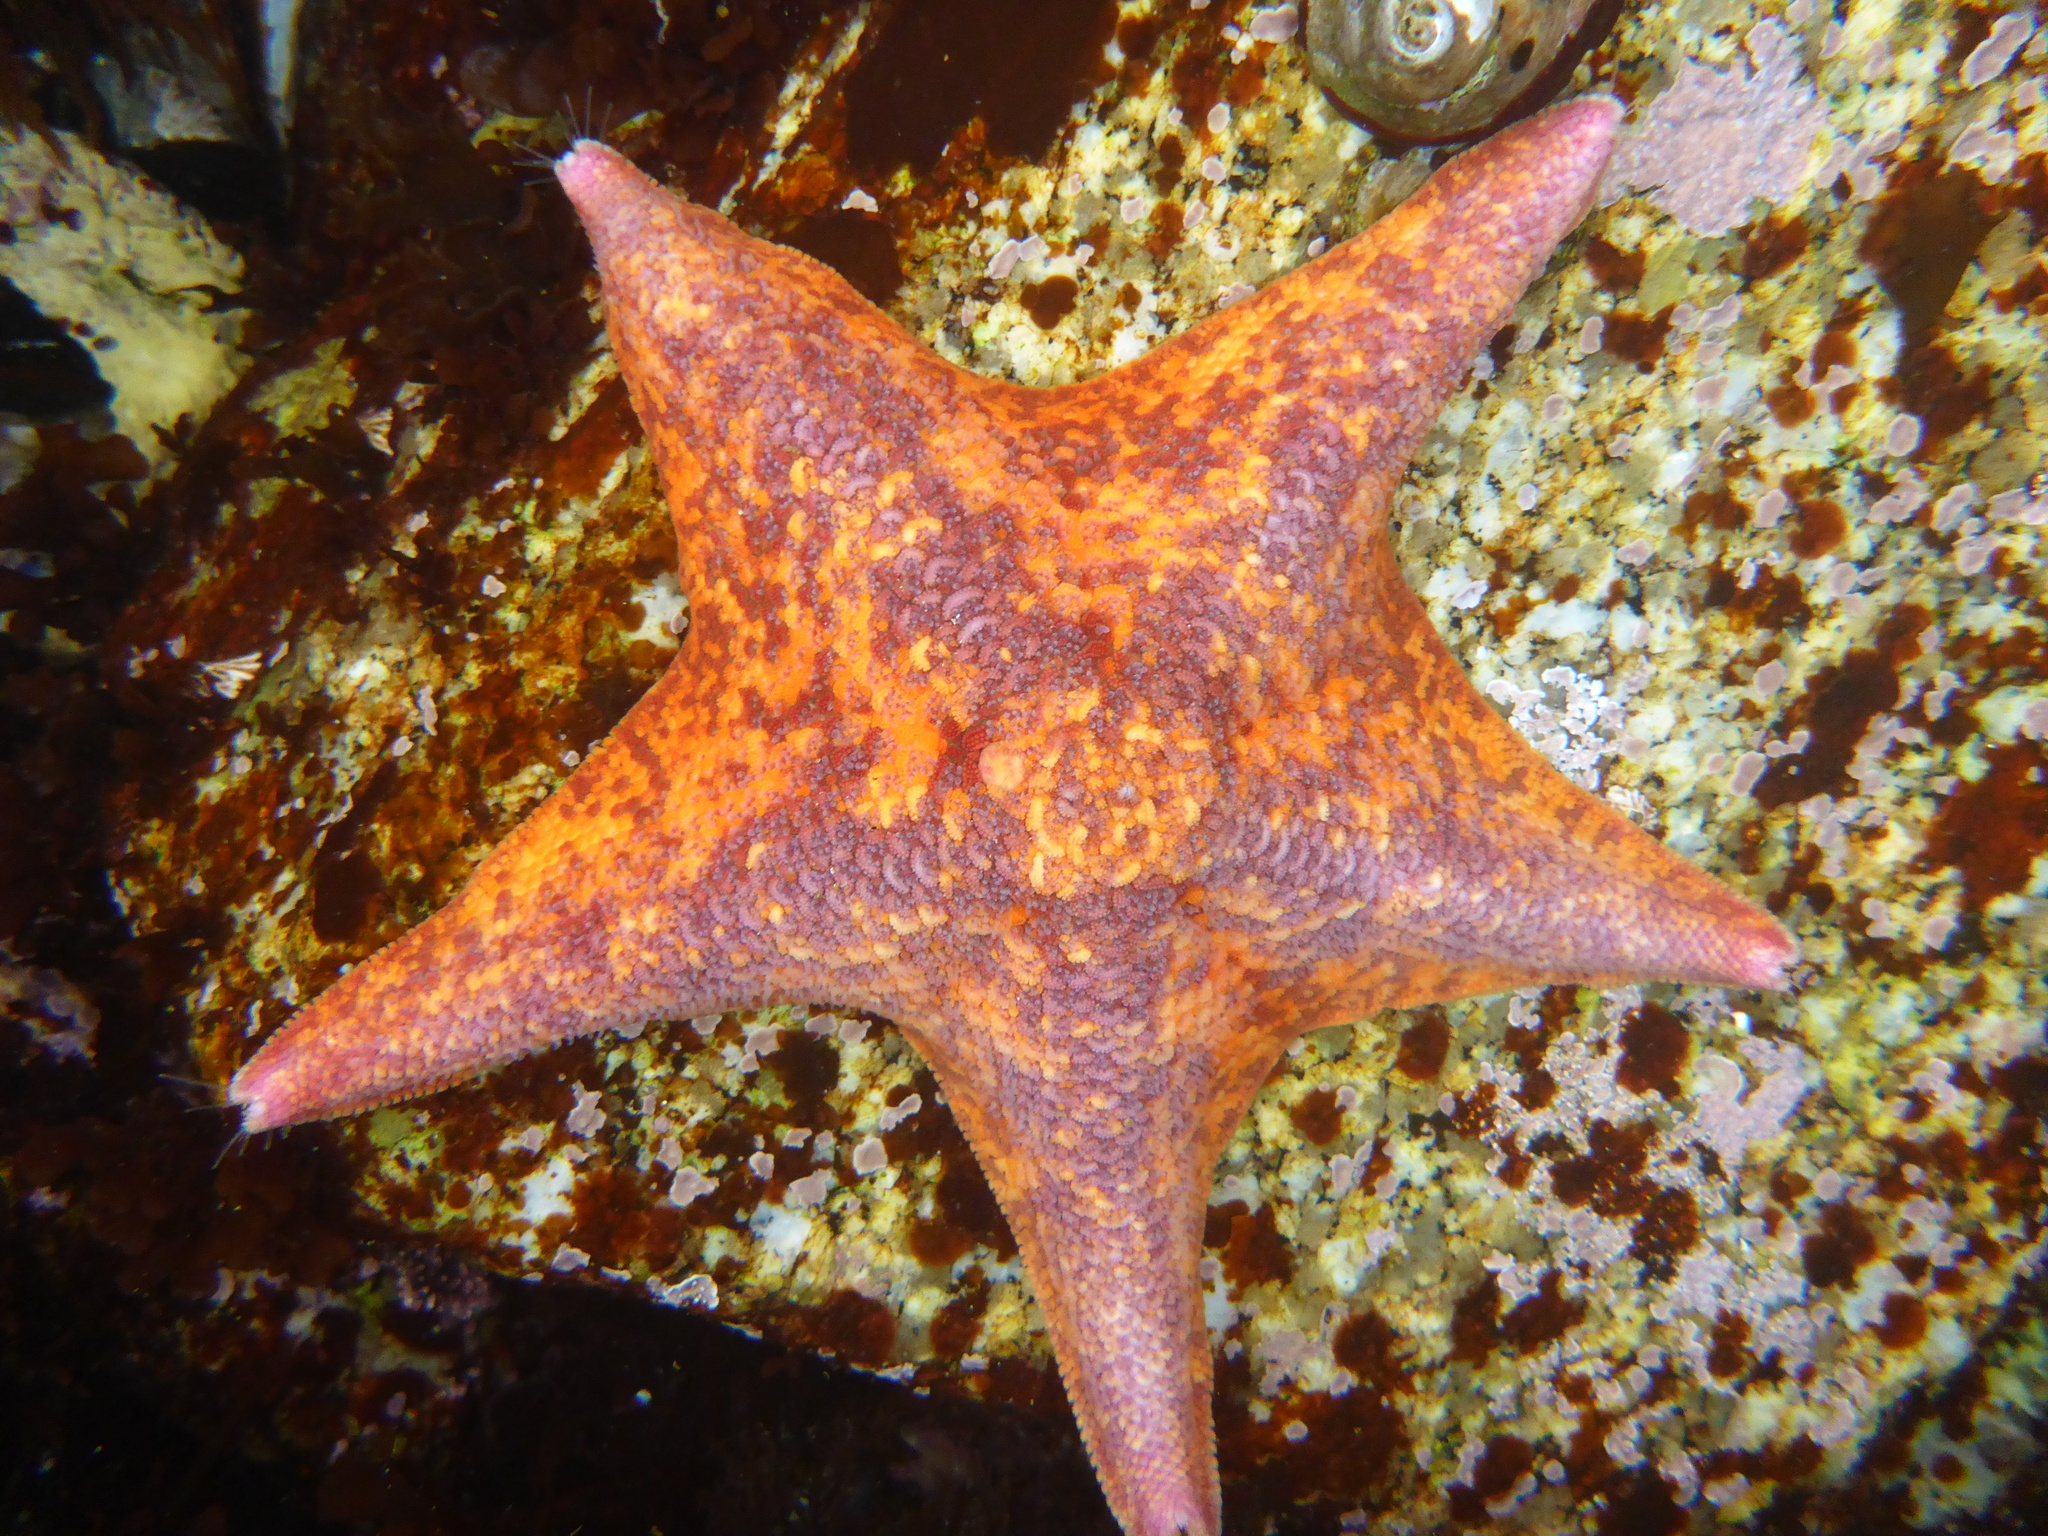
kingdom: Animalia
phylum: Echinodermata
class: Asteroidea
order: Valvatida
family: Asterinidae
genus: Patiria
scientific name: Patiria miniata
